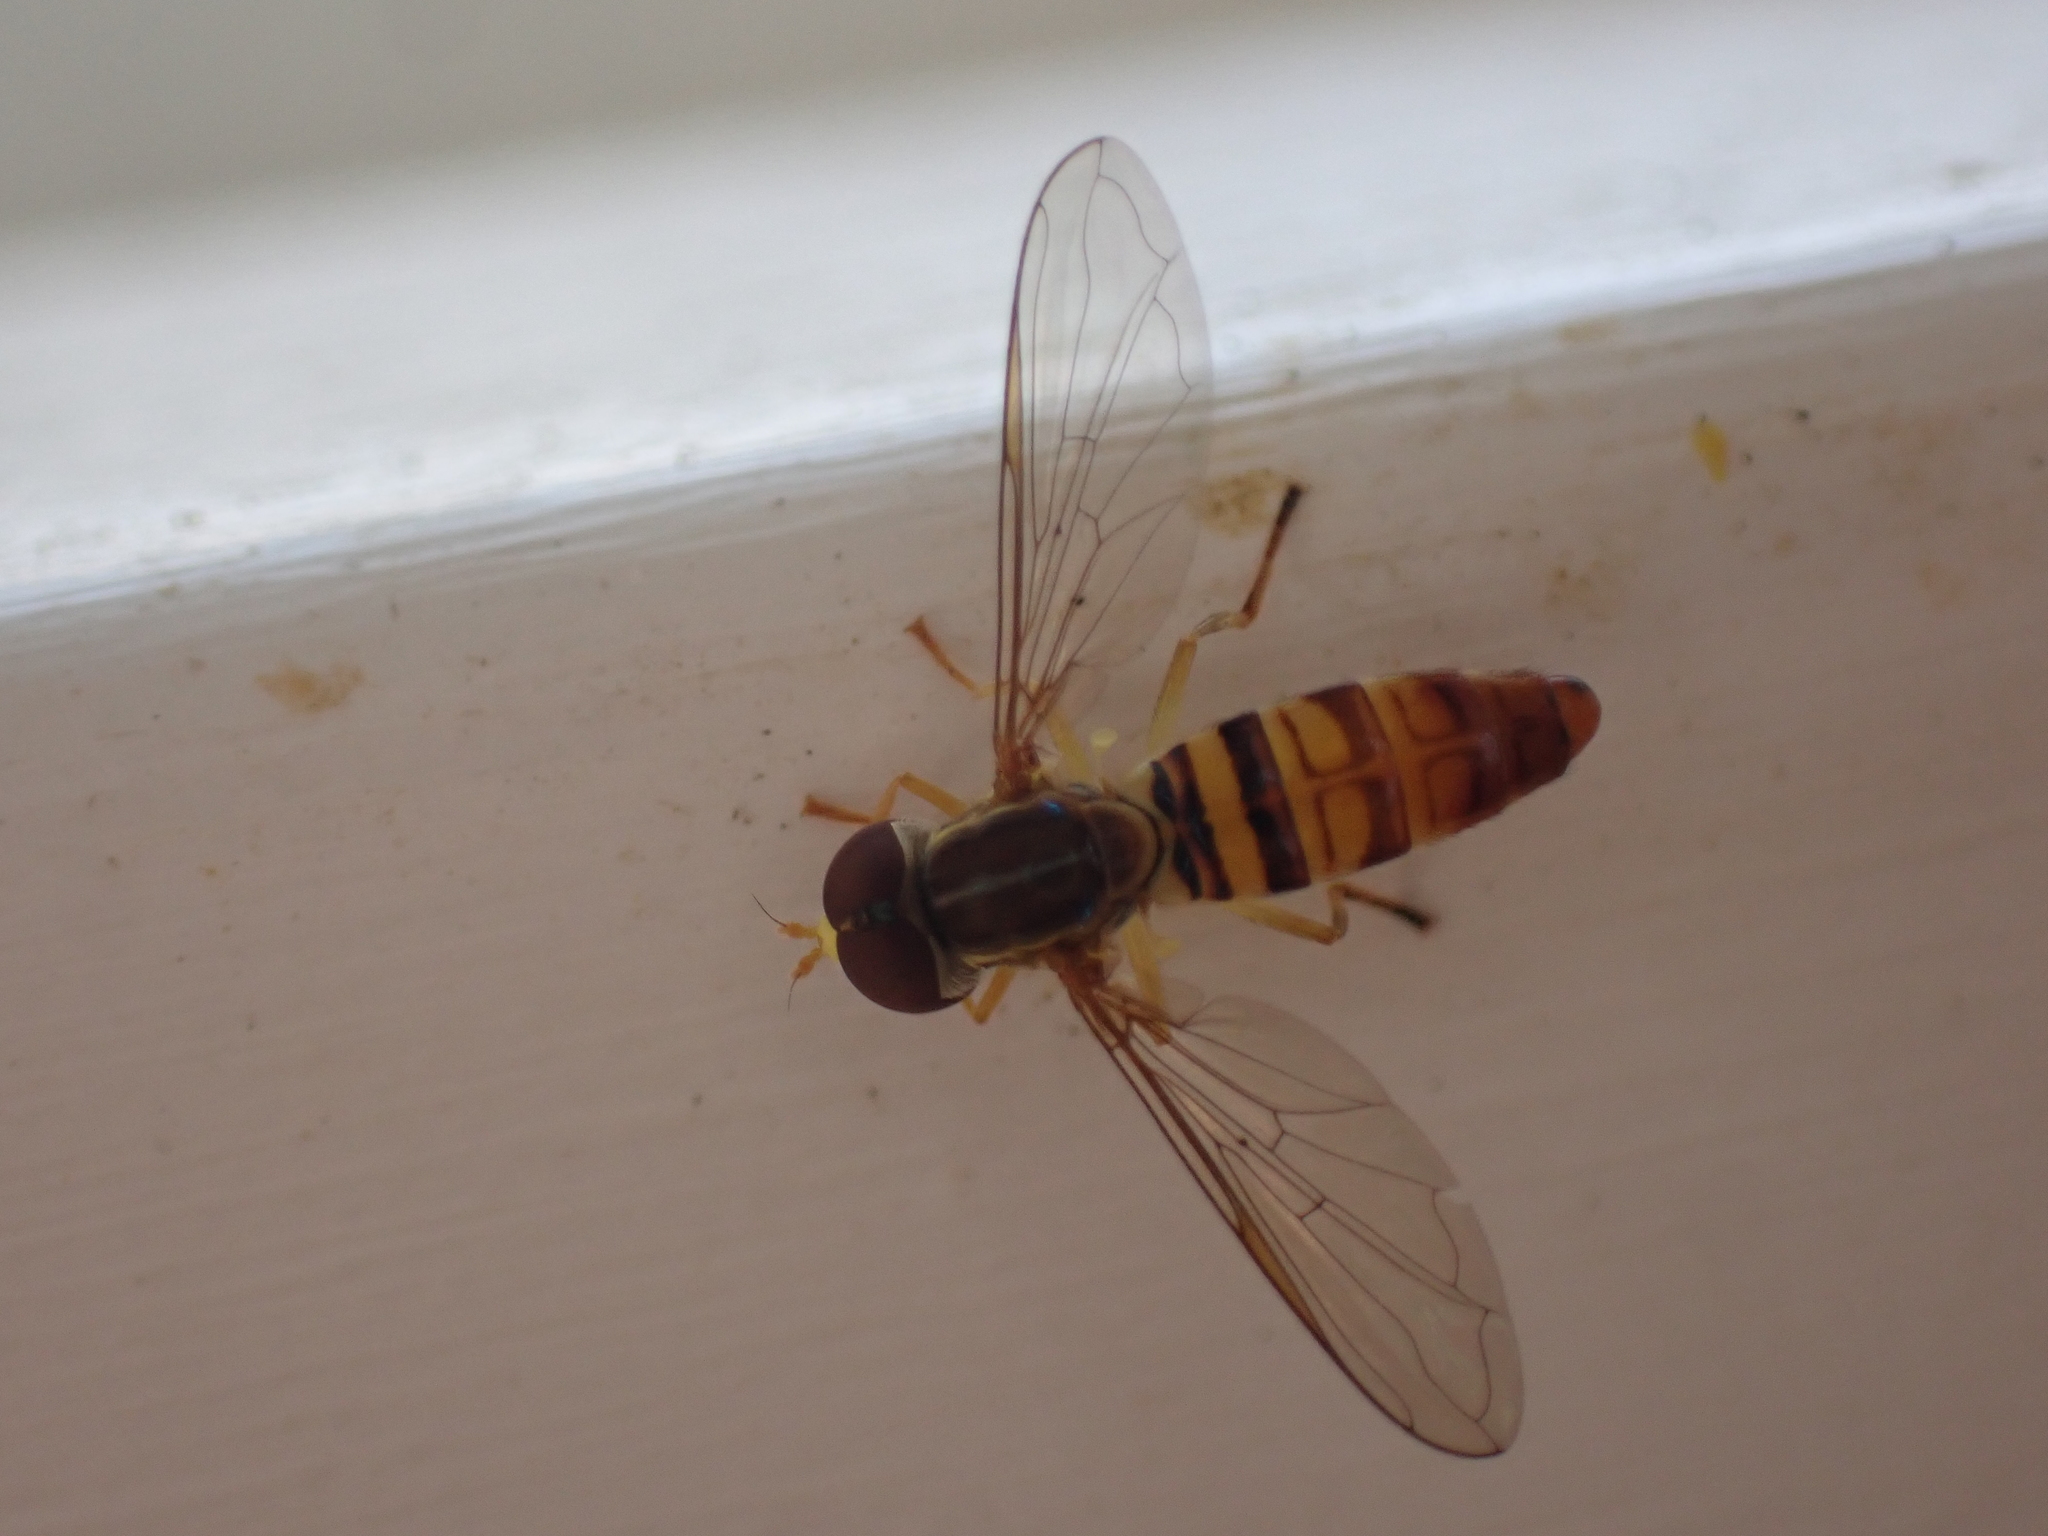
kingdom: Animalia
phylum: Arthropoda
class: Insecta
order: Diptera
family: Syrphidae
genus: Toxomerus
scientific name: Toxomerus politus
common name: Maize calligrapher
